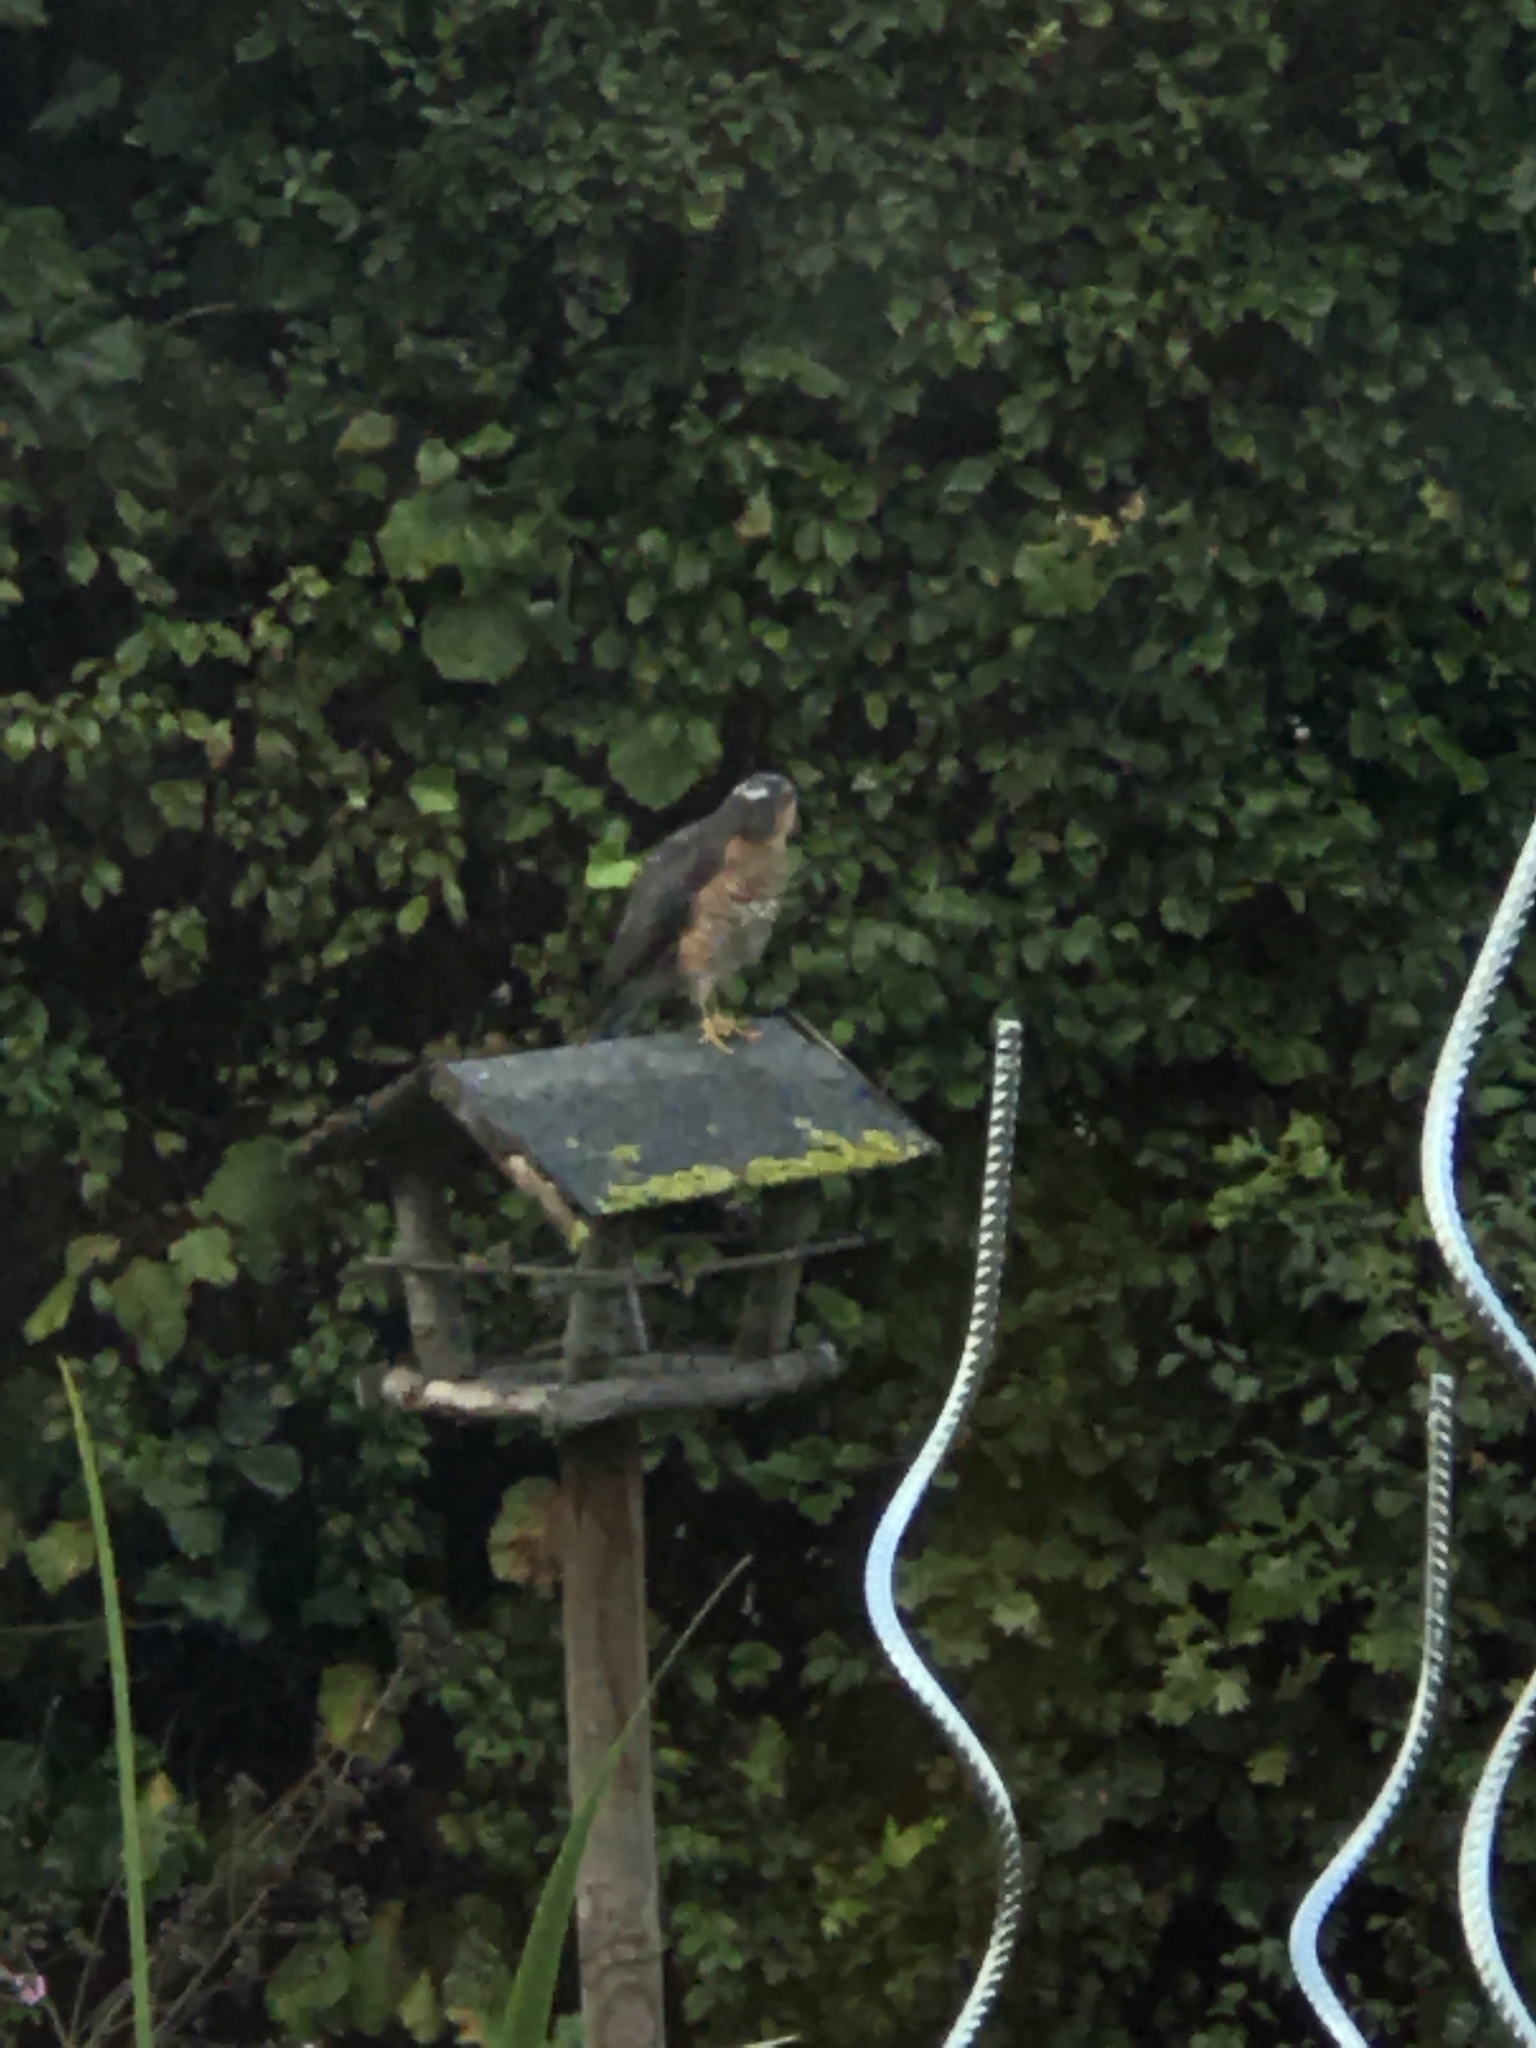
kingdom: Animalia
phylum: Chordata
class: Aves
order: Accipitriformes
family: Accipitridae
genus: Accipiter
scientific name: Accipiter nisus
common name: Eurasian sparrowhawk
